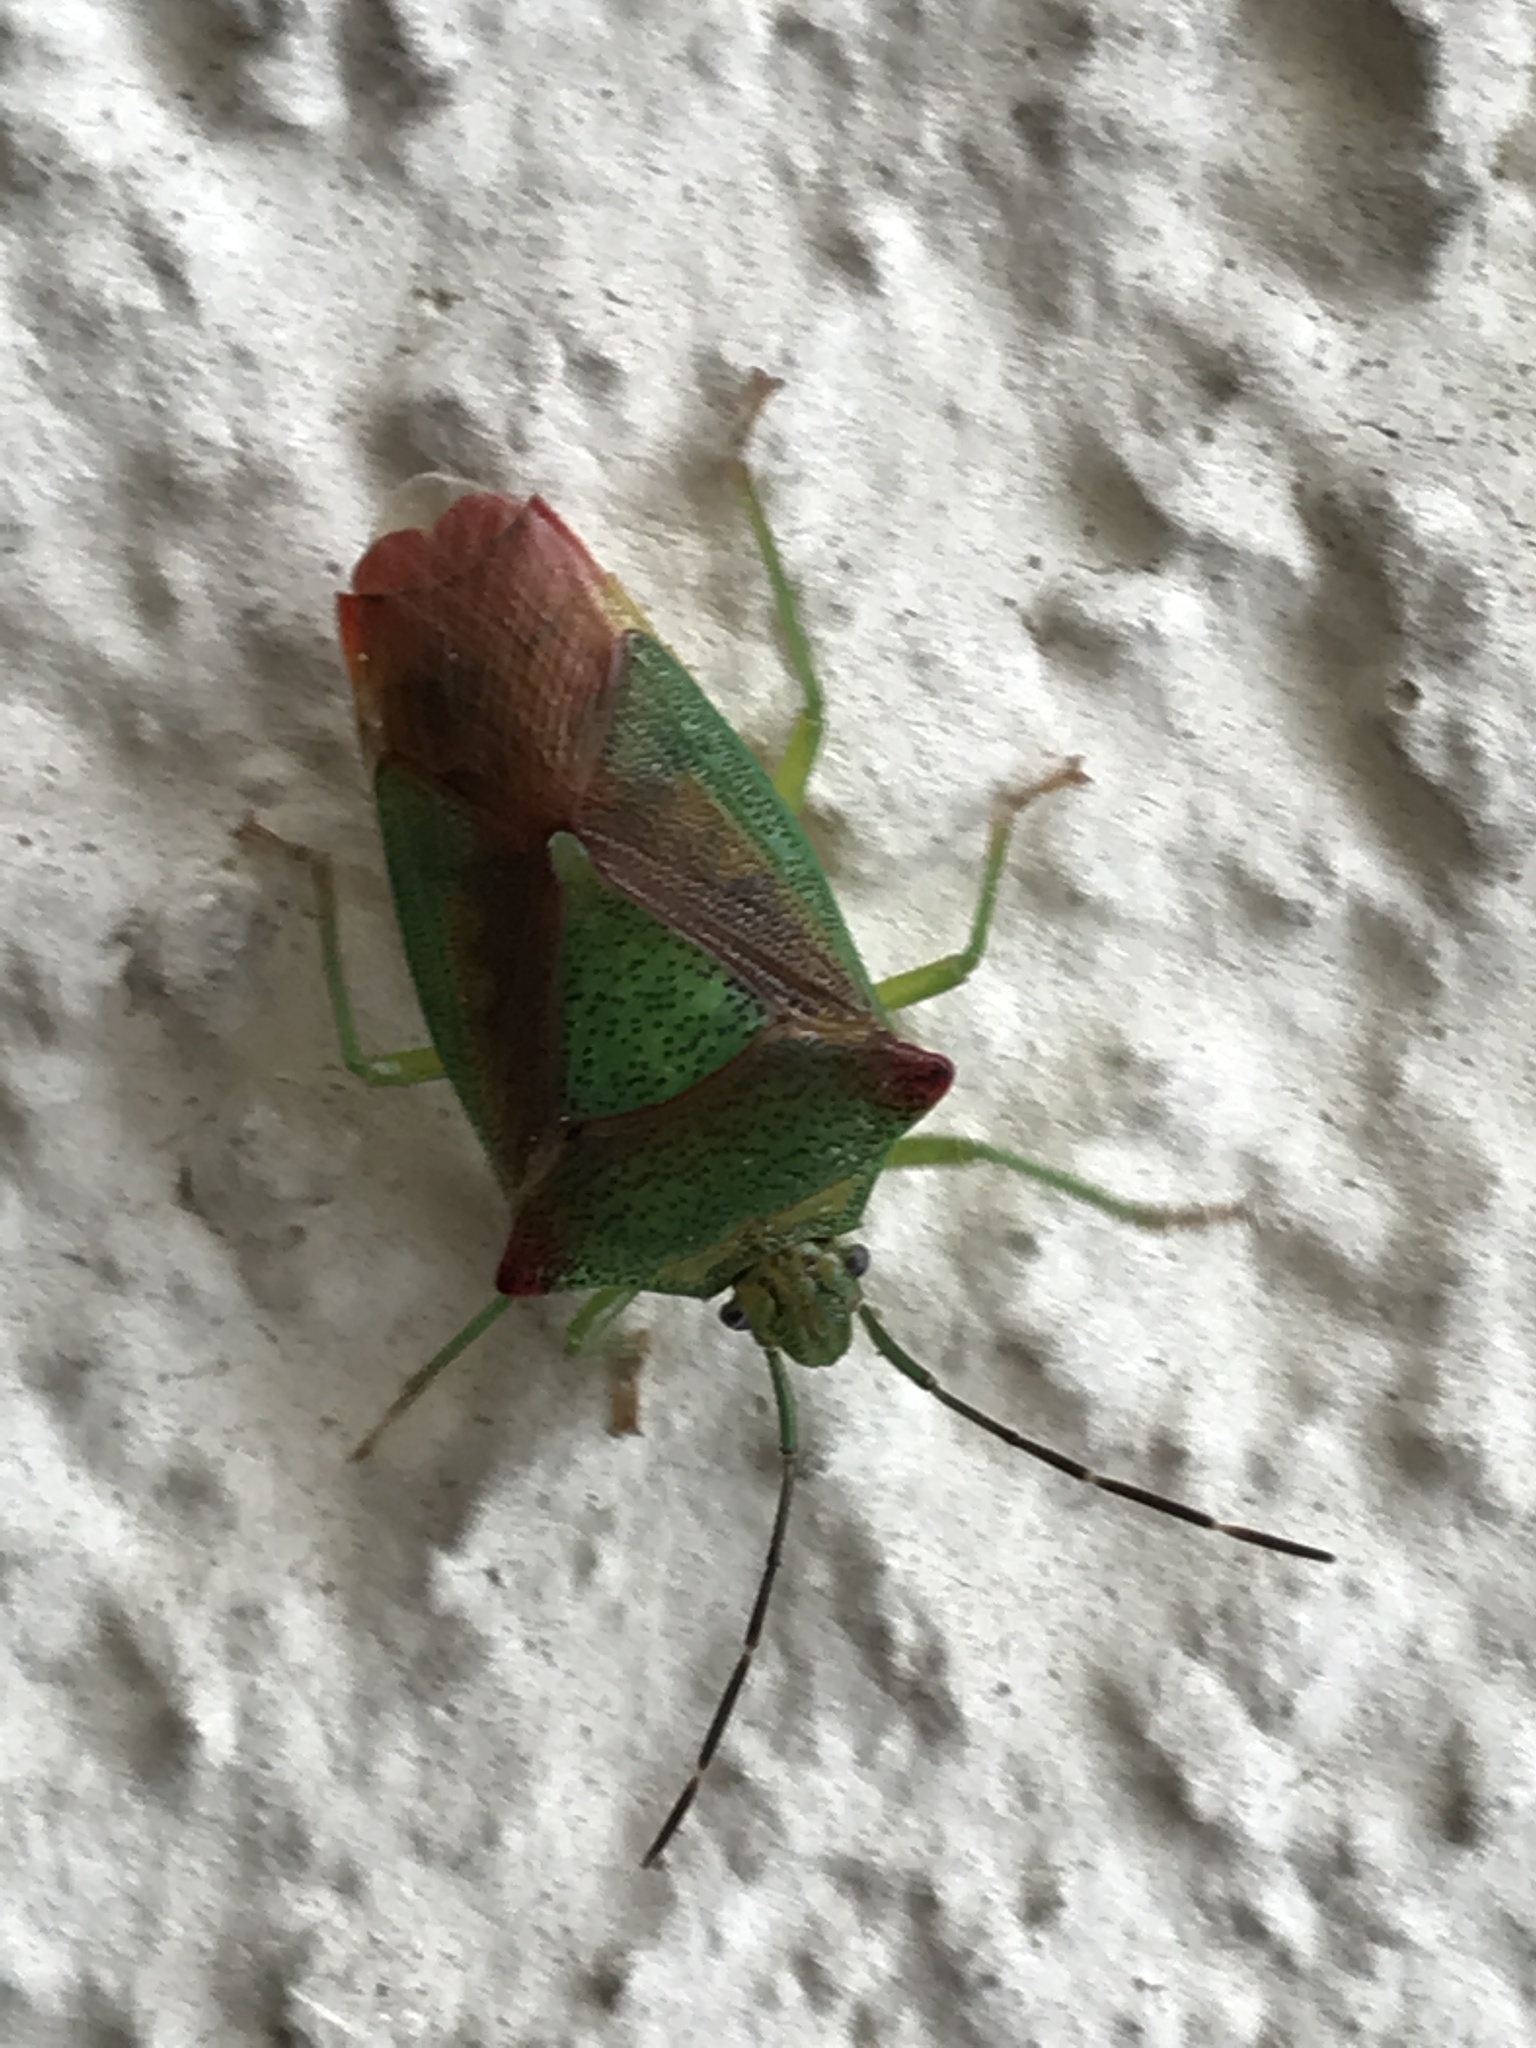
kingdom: Animalia
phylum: Arthropoda
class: Insecta
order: Hemiptera
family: Acanthosomatidae
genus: Acanthosoma
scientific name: Acanthosoma haemorrhoidale
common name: Hawthorn shieldbug
